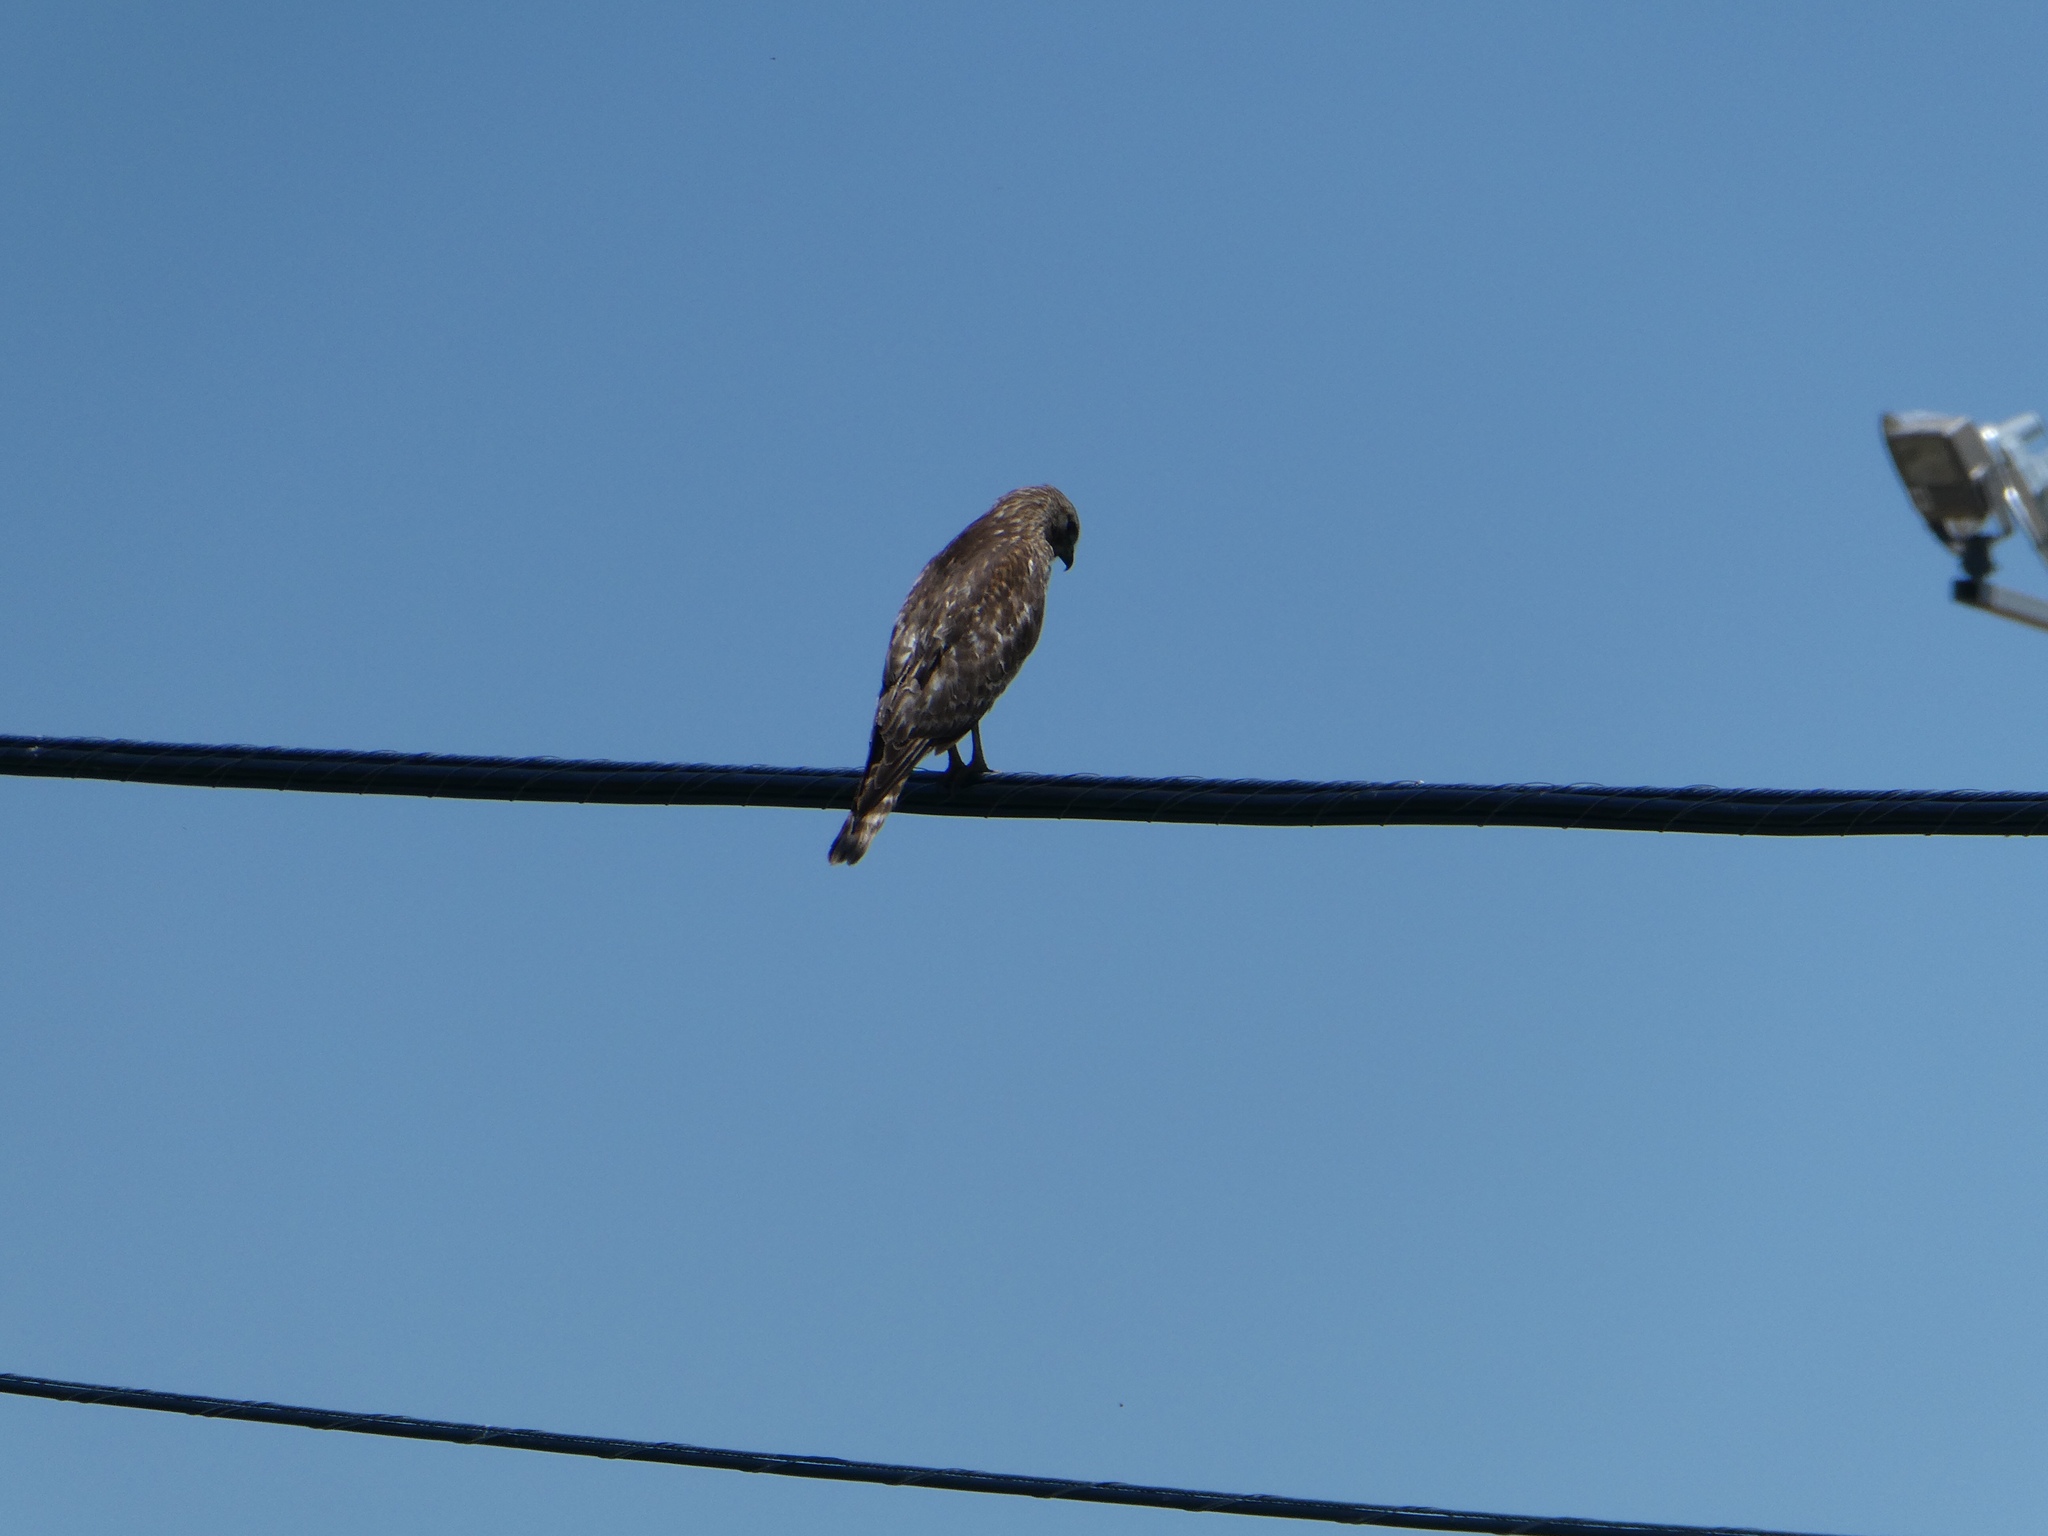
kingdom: Animalia
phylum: Chordata
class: Aves
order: Accipitriformes
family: Accipitridae
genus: Buteo
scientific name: Buteo lineatus
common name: Red-shouldered hawk
